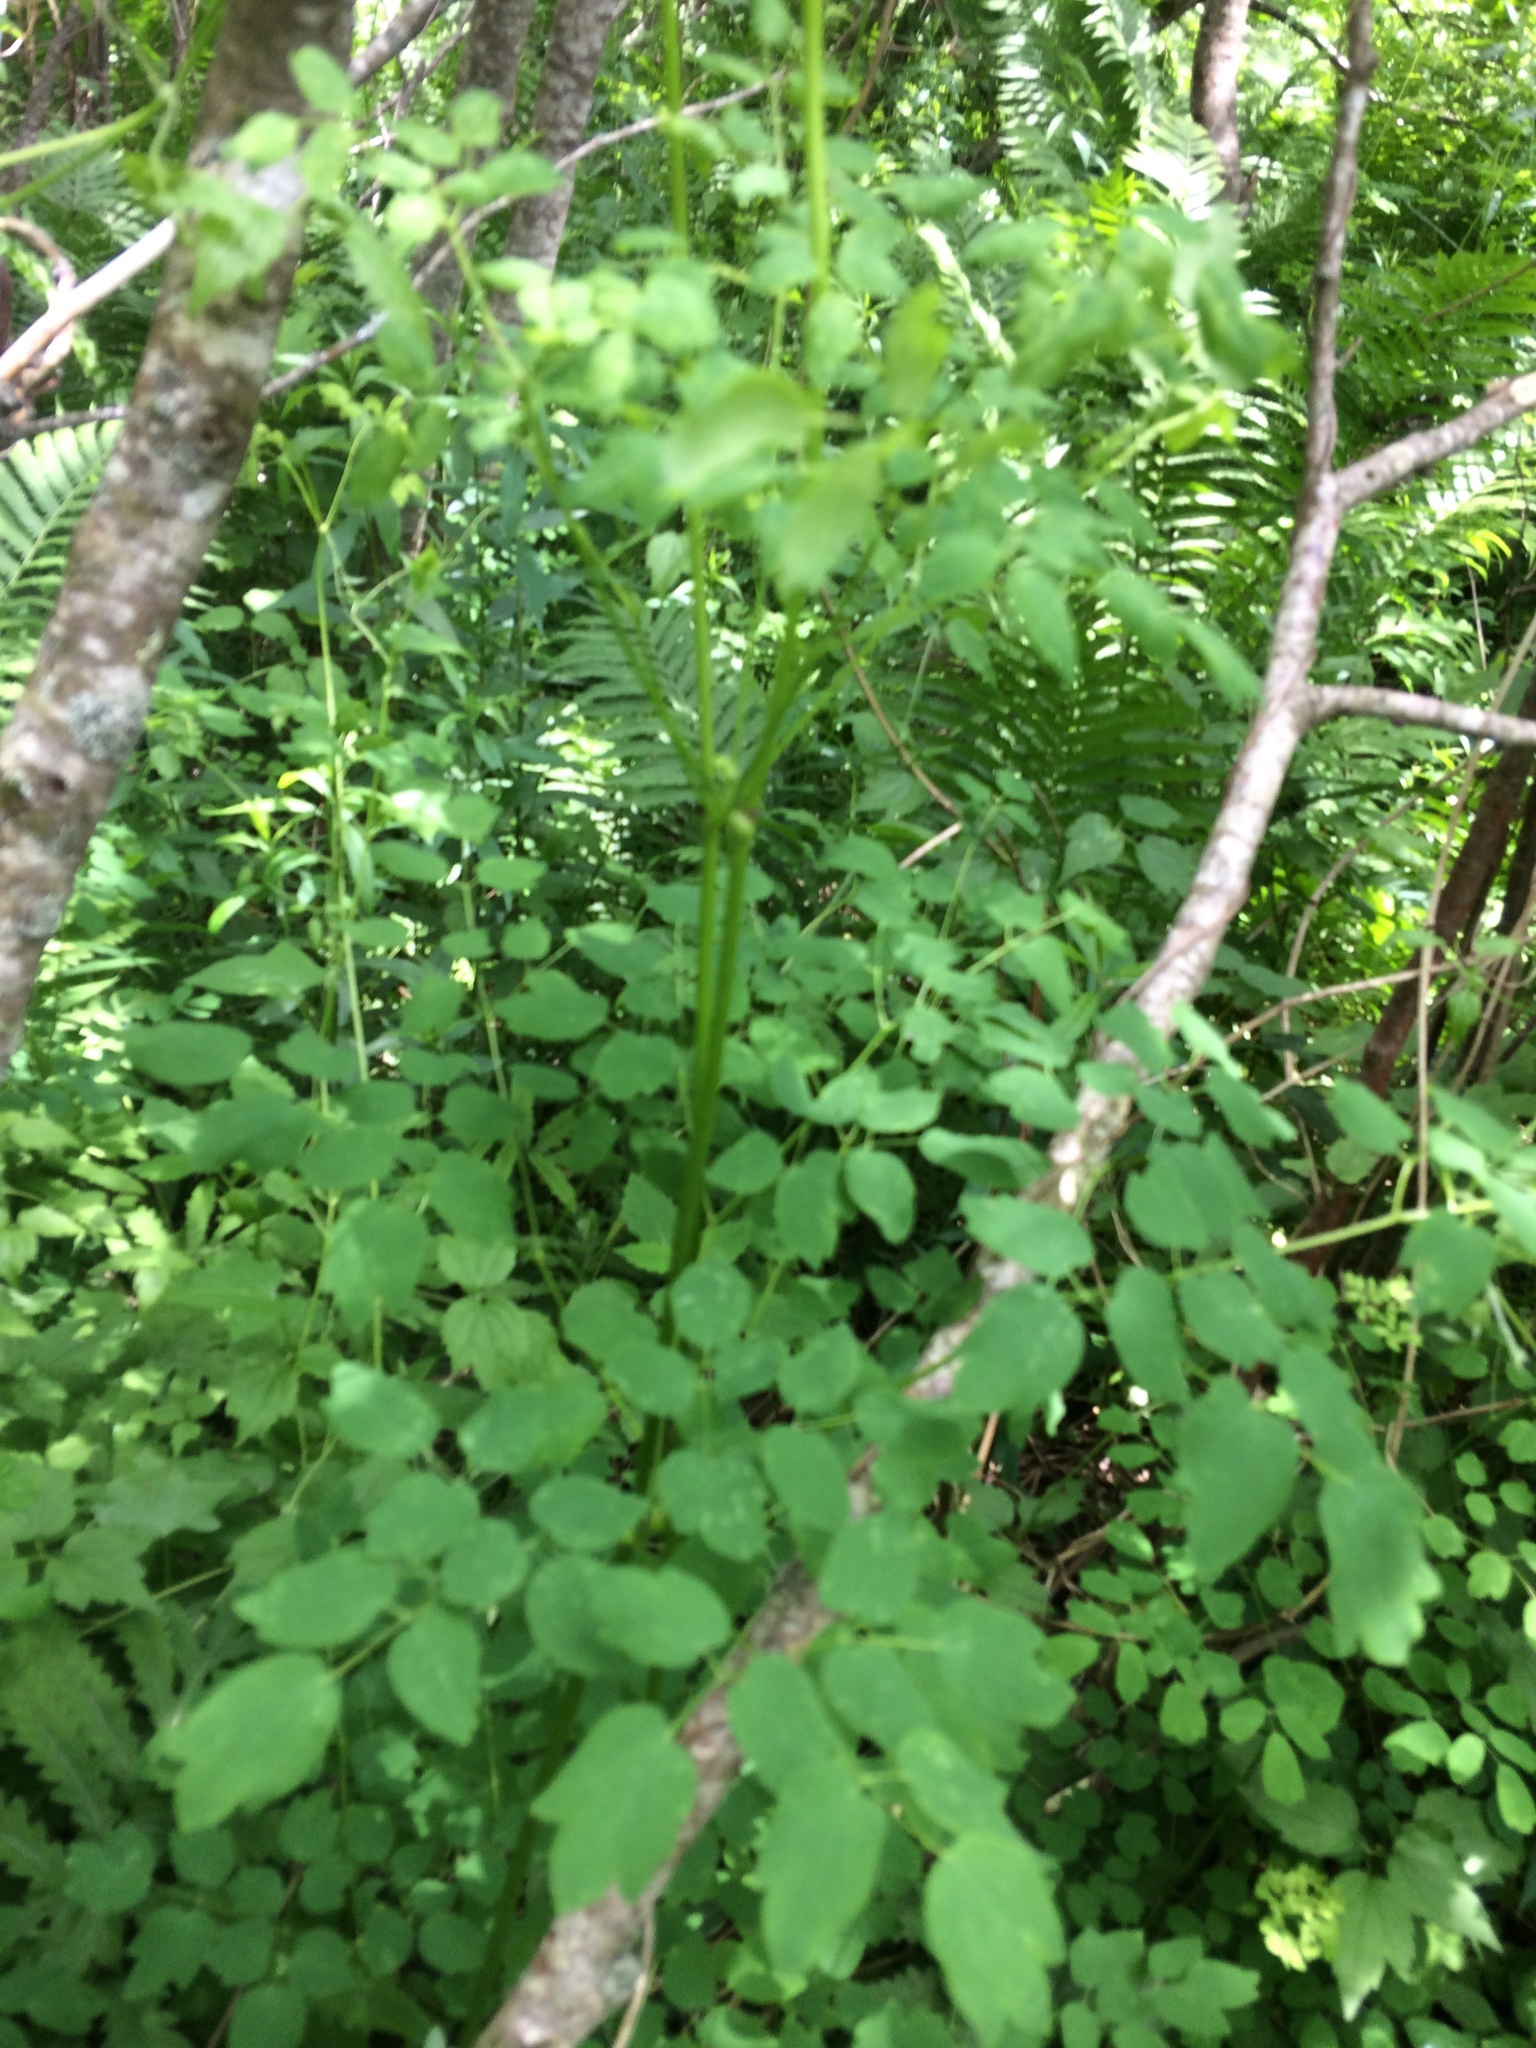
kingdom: Plantae
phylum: Tracheophyta
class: Magnoliopsida
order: Ranunculales
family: Ranunculaceae
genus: Thalictrum
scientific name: Thalictrum pubescens
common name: King-of-the-meadow
